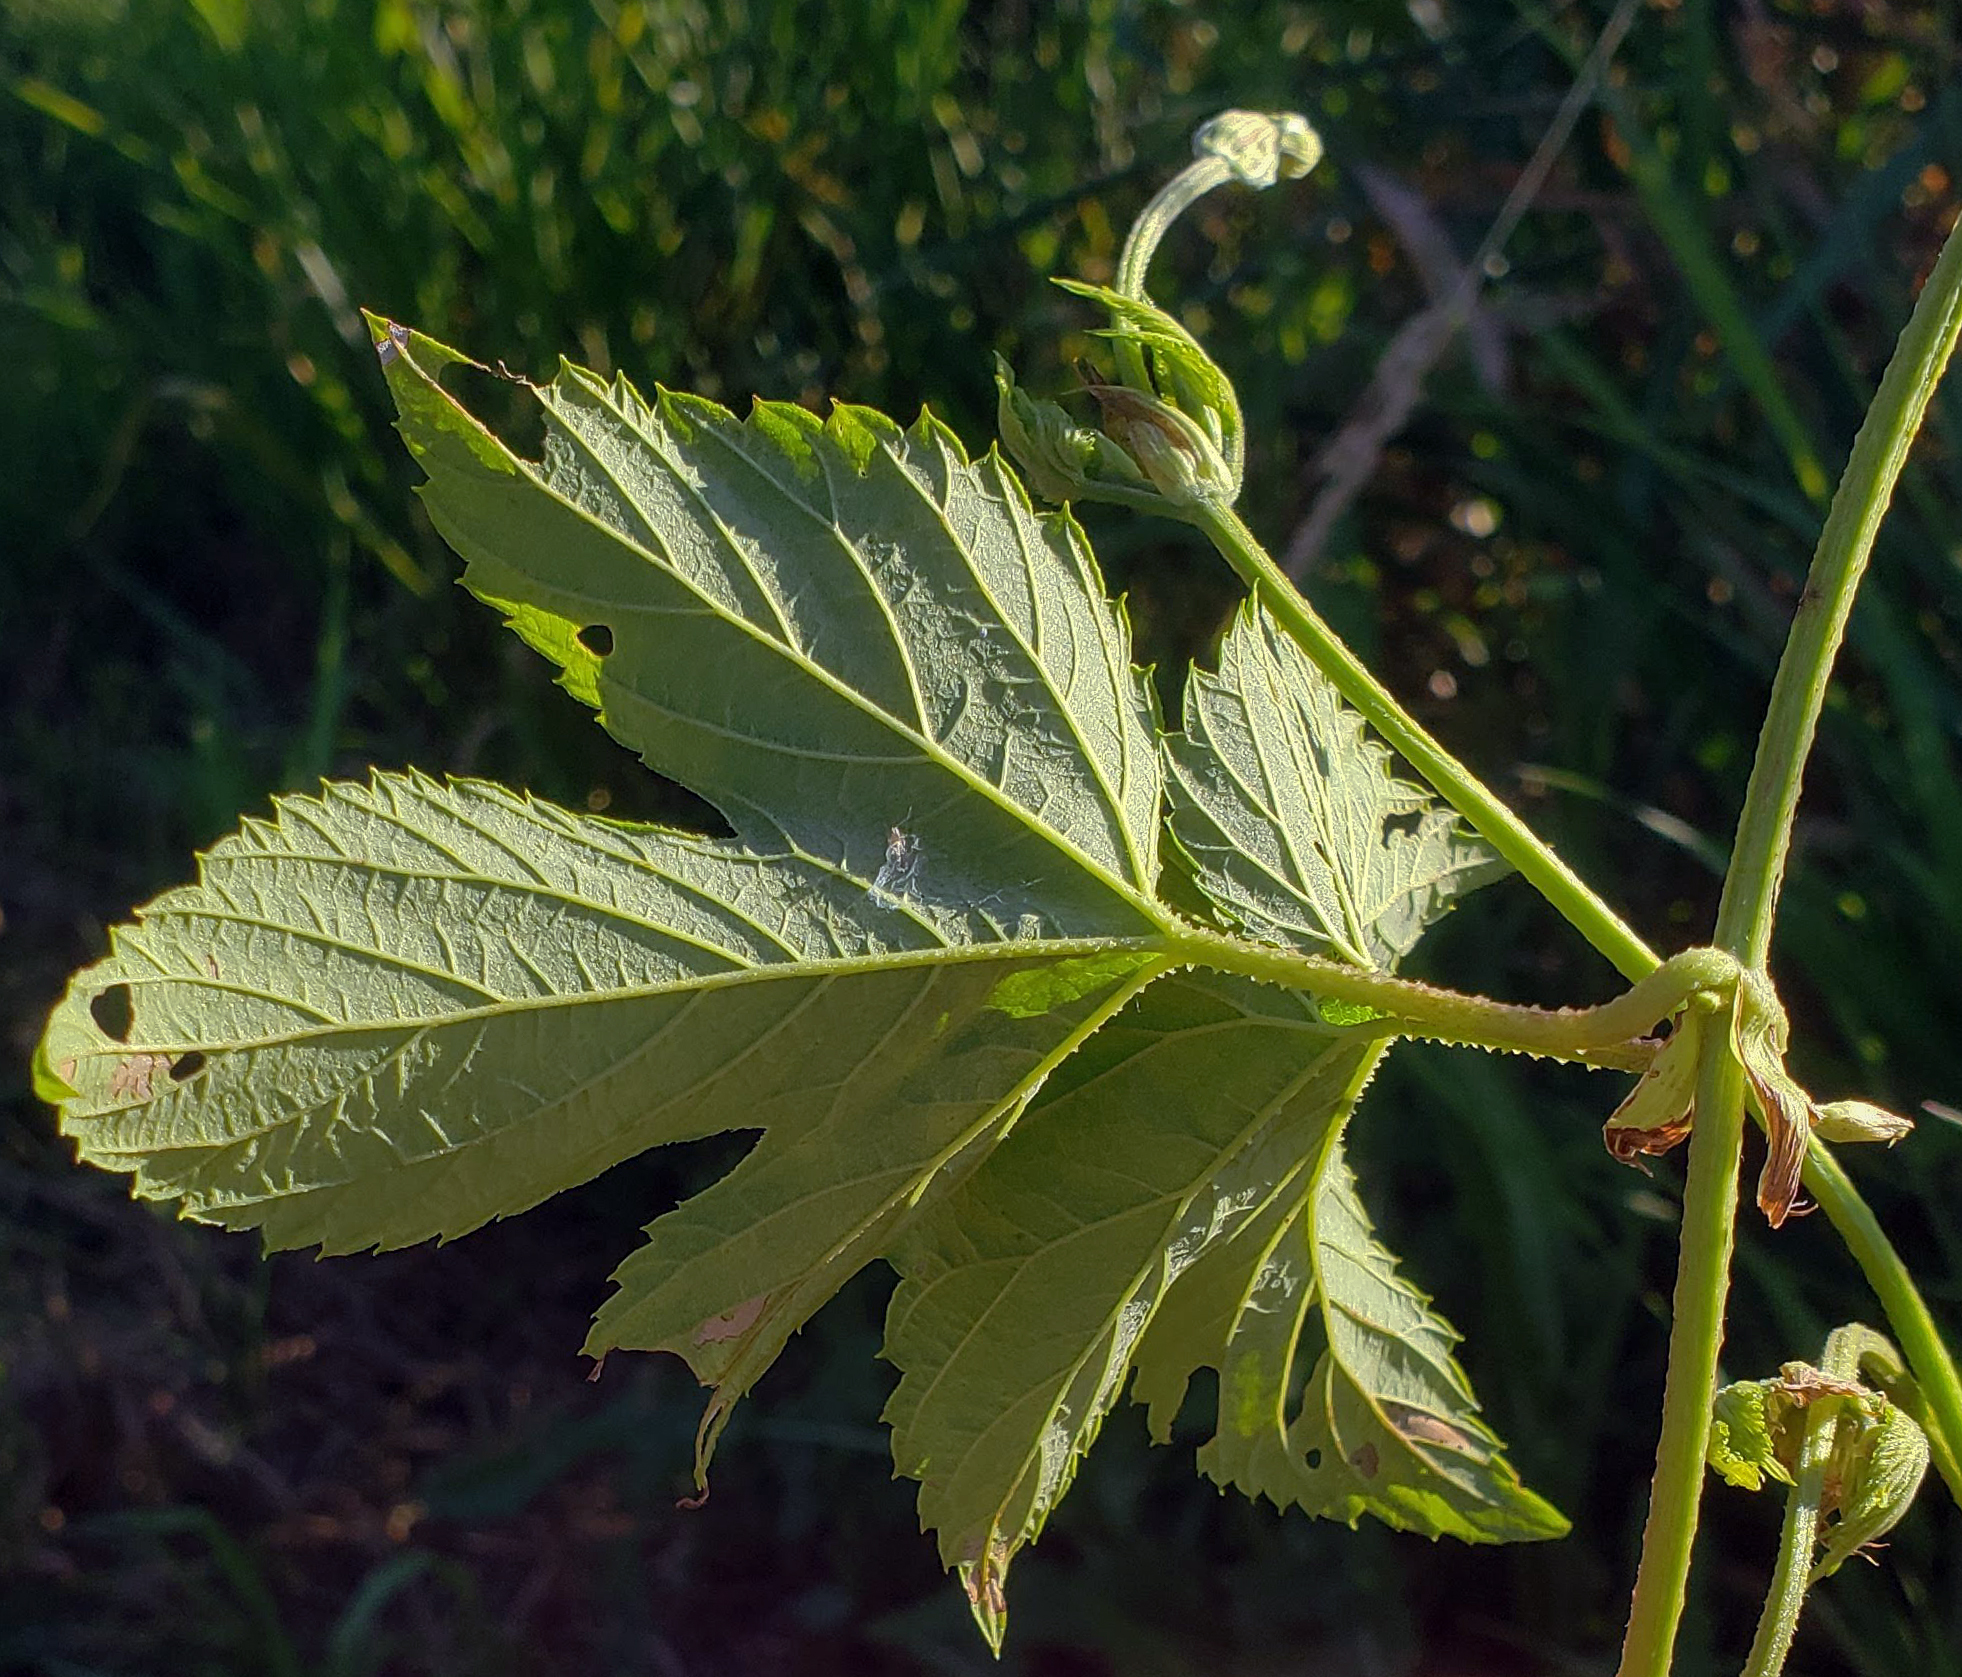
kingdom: Plantae
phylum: Tracheophyta
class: Magnoliopsida
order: Rosales
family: Cannabaceae
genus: Humulus
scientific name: Humulus lupulus
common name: Hop
